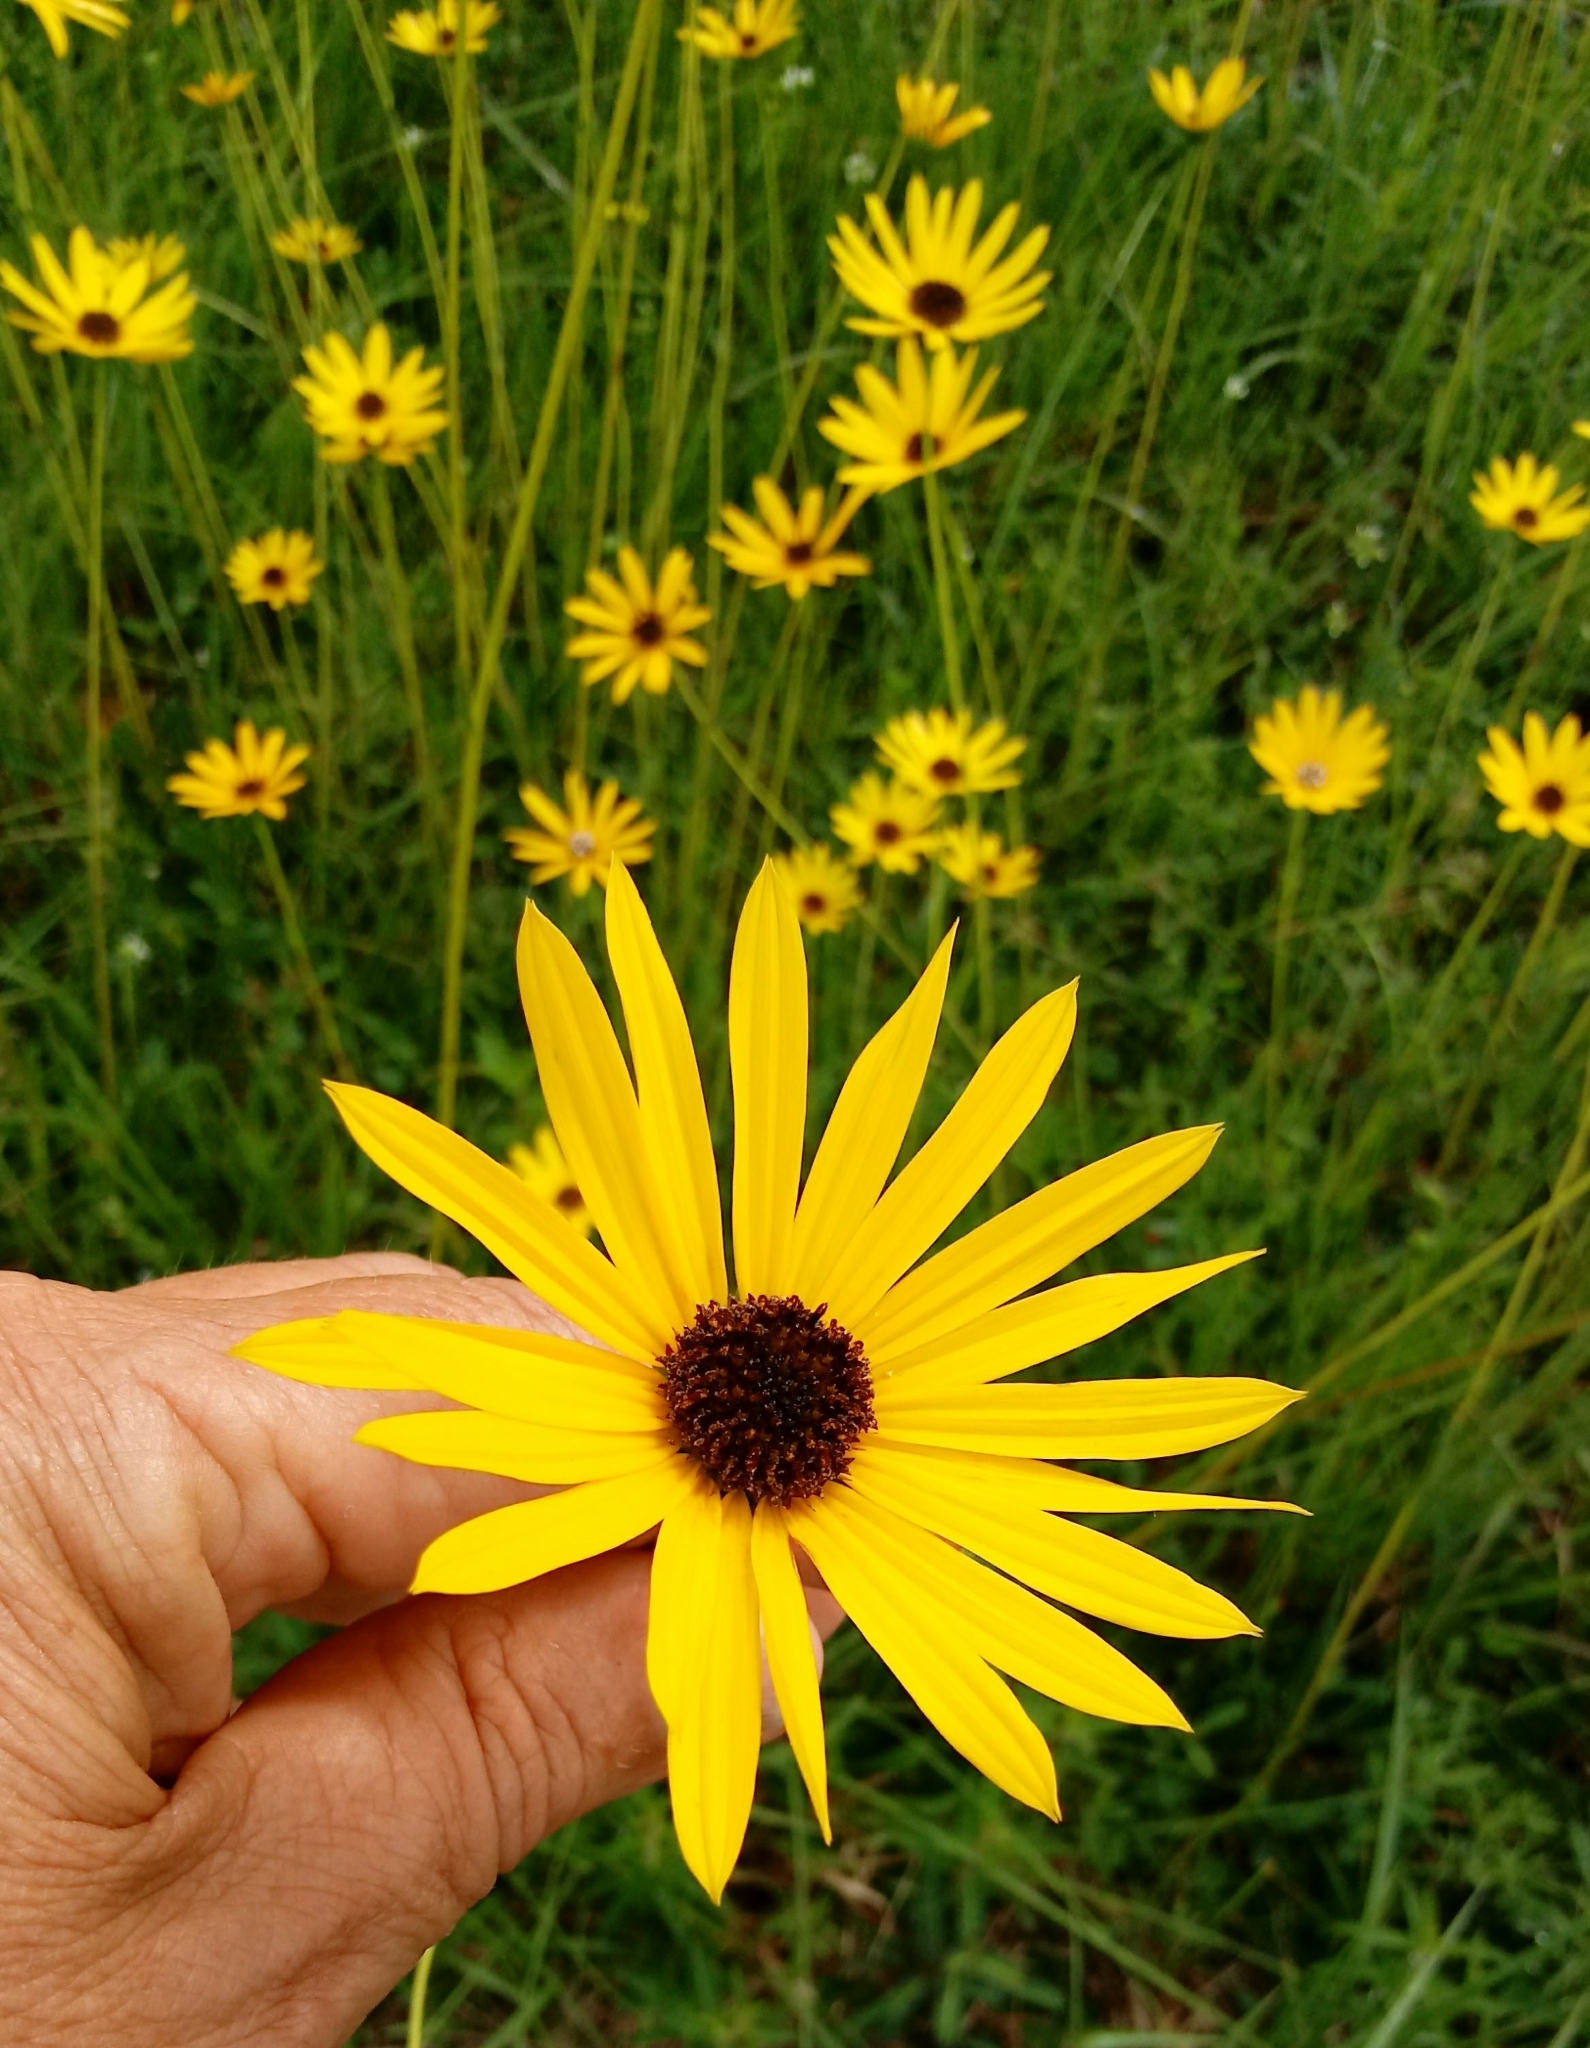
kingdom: Plantae
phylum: Tracheophyta
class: Magnoliopsida
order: Asterales
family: Asteraceae
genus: Helianthus
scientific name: Helianthus heterophyllus
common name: Wetland sunflower
